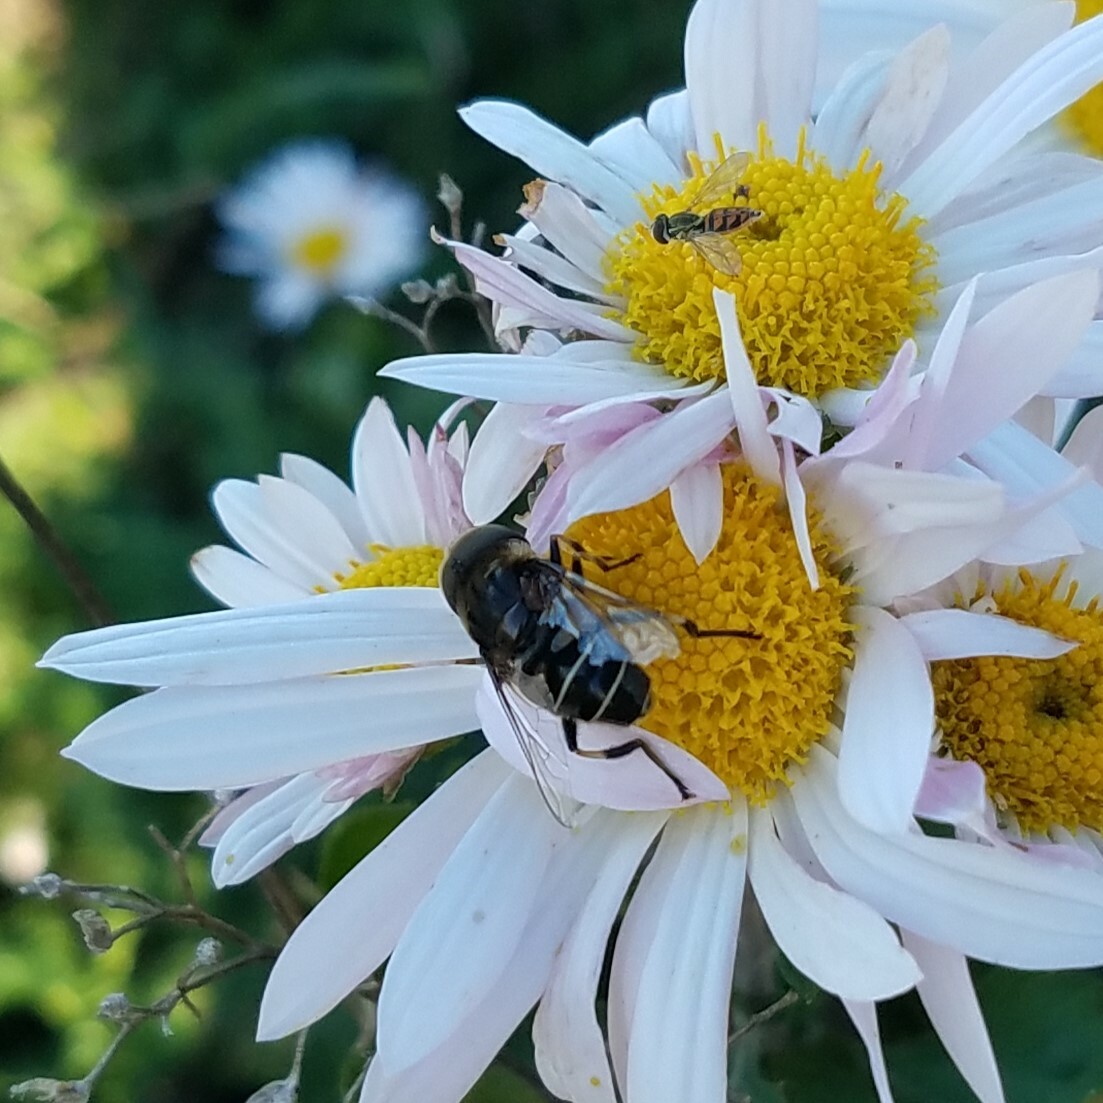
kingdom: Animalia
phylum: Arthropoda
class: Insecta
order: Diptera
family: Syrphidae
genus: Eristalis
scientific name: Eristalis dimidiata
